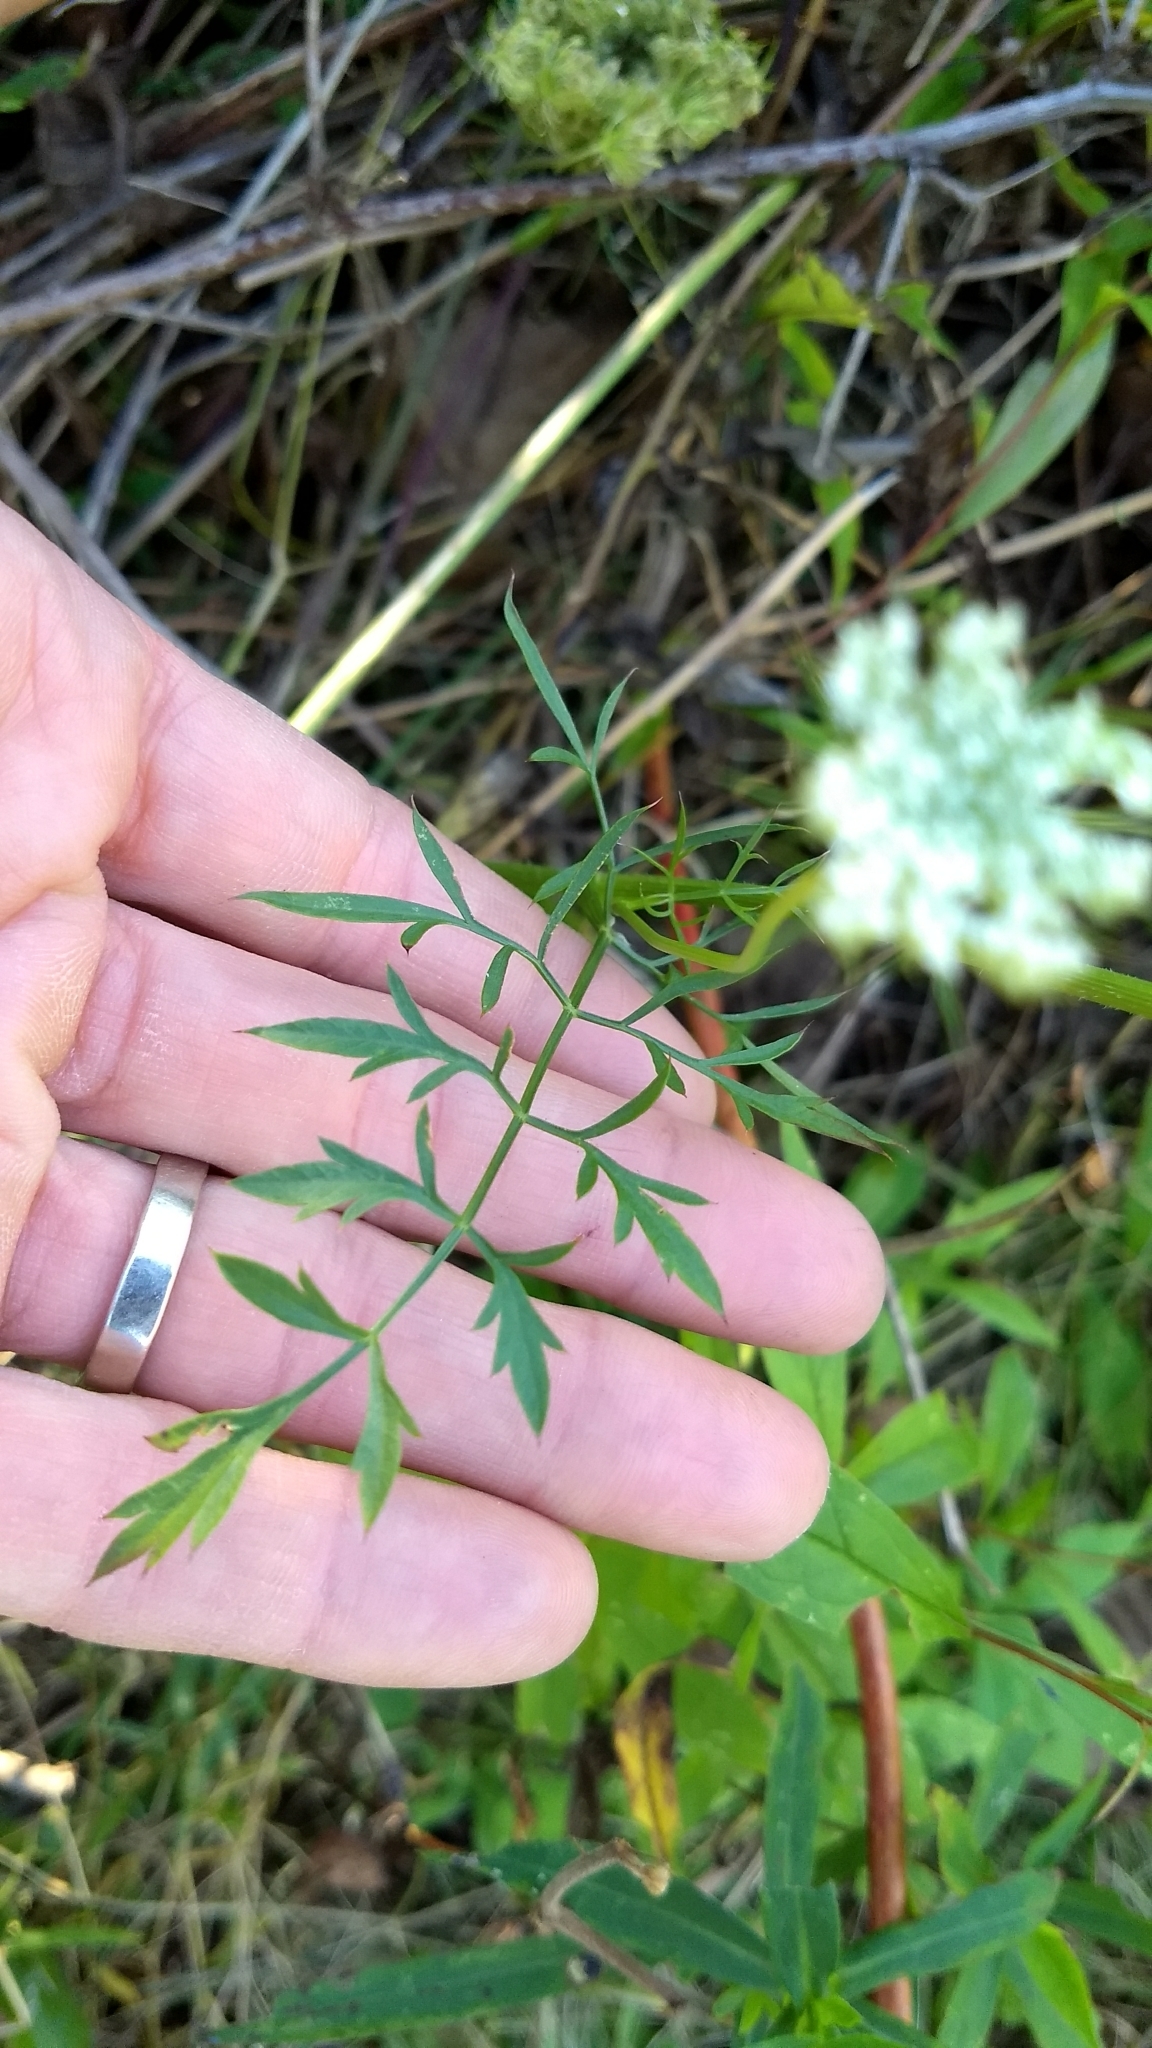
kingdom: Plantae
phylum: Tracheophyta
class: Magnoliopsida
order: Apiales
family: Apiaceae
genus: Daucus
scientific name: Daucus carota
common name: Wild carrot
